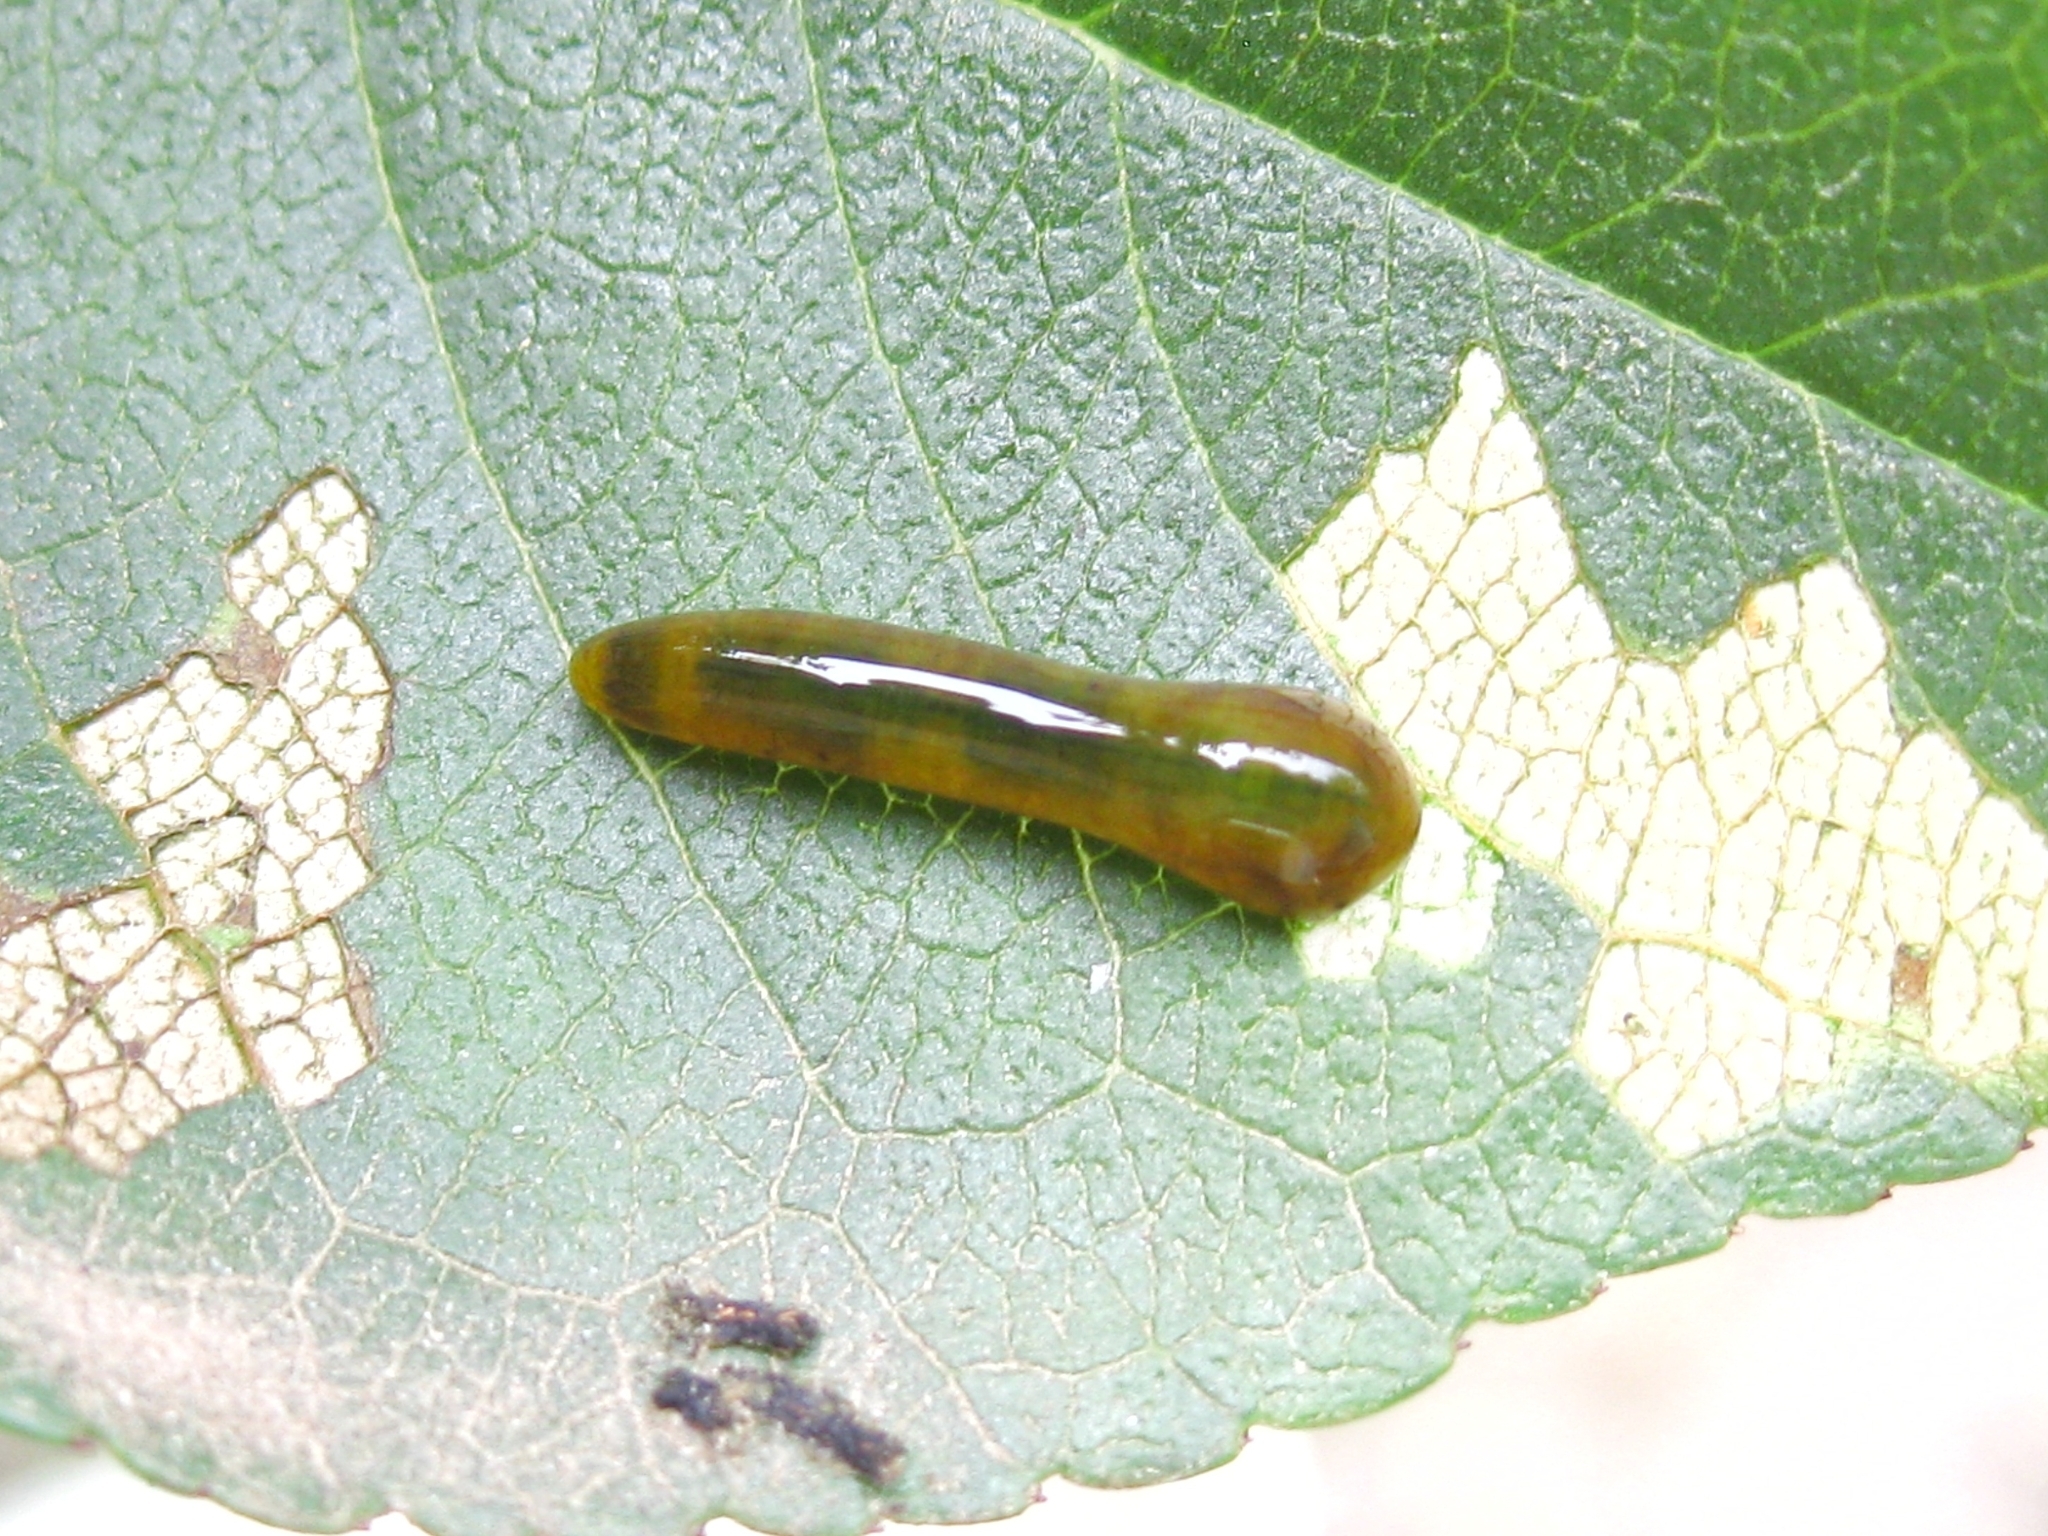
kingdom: Animalia
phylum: Arthropoda
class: Insecta
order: Hymenoptera
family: Tenthredinidae
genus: Caliroa
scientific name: Caliroa cerasi
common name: Pear sawfly
